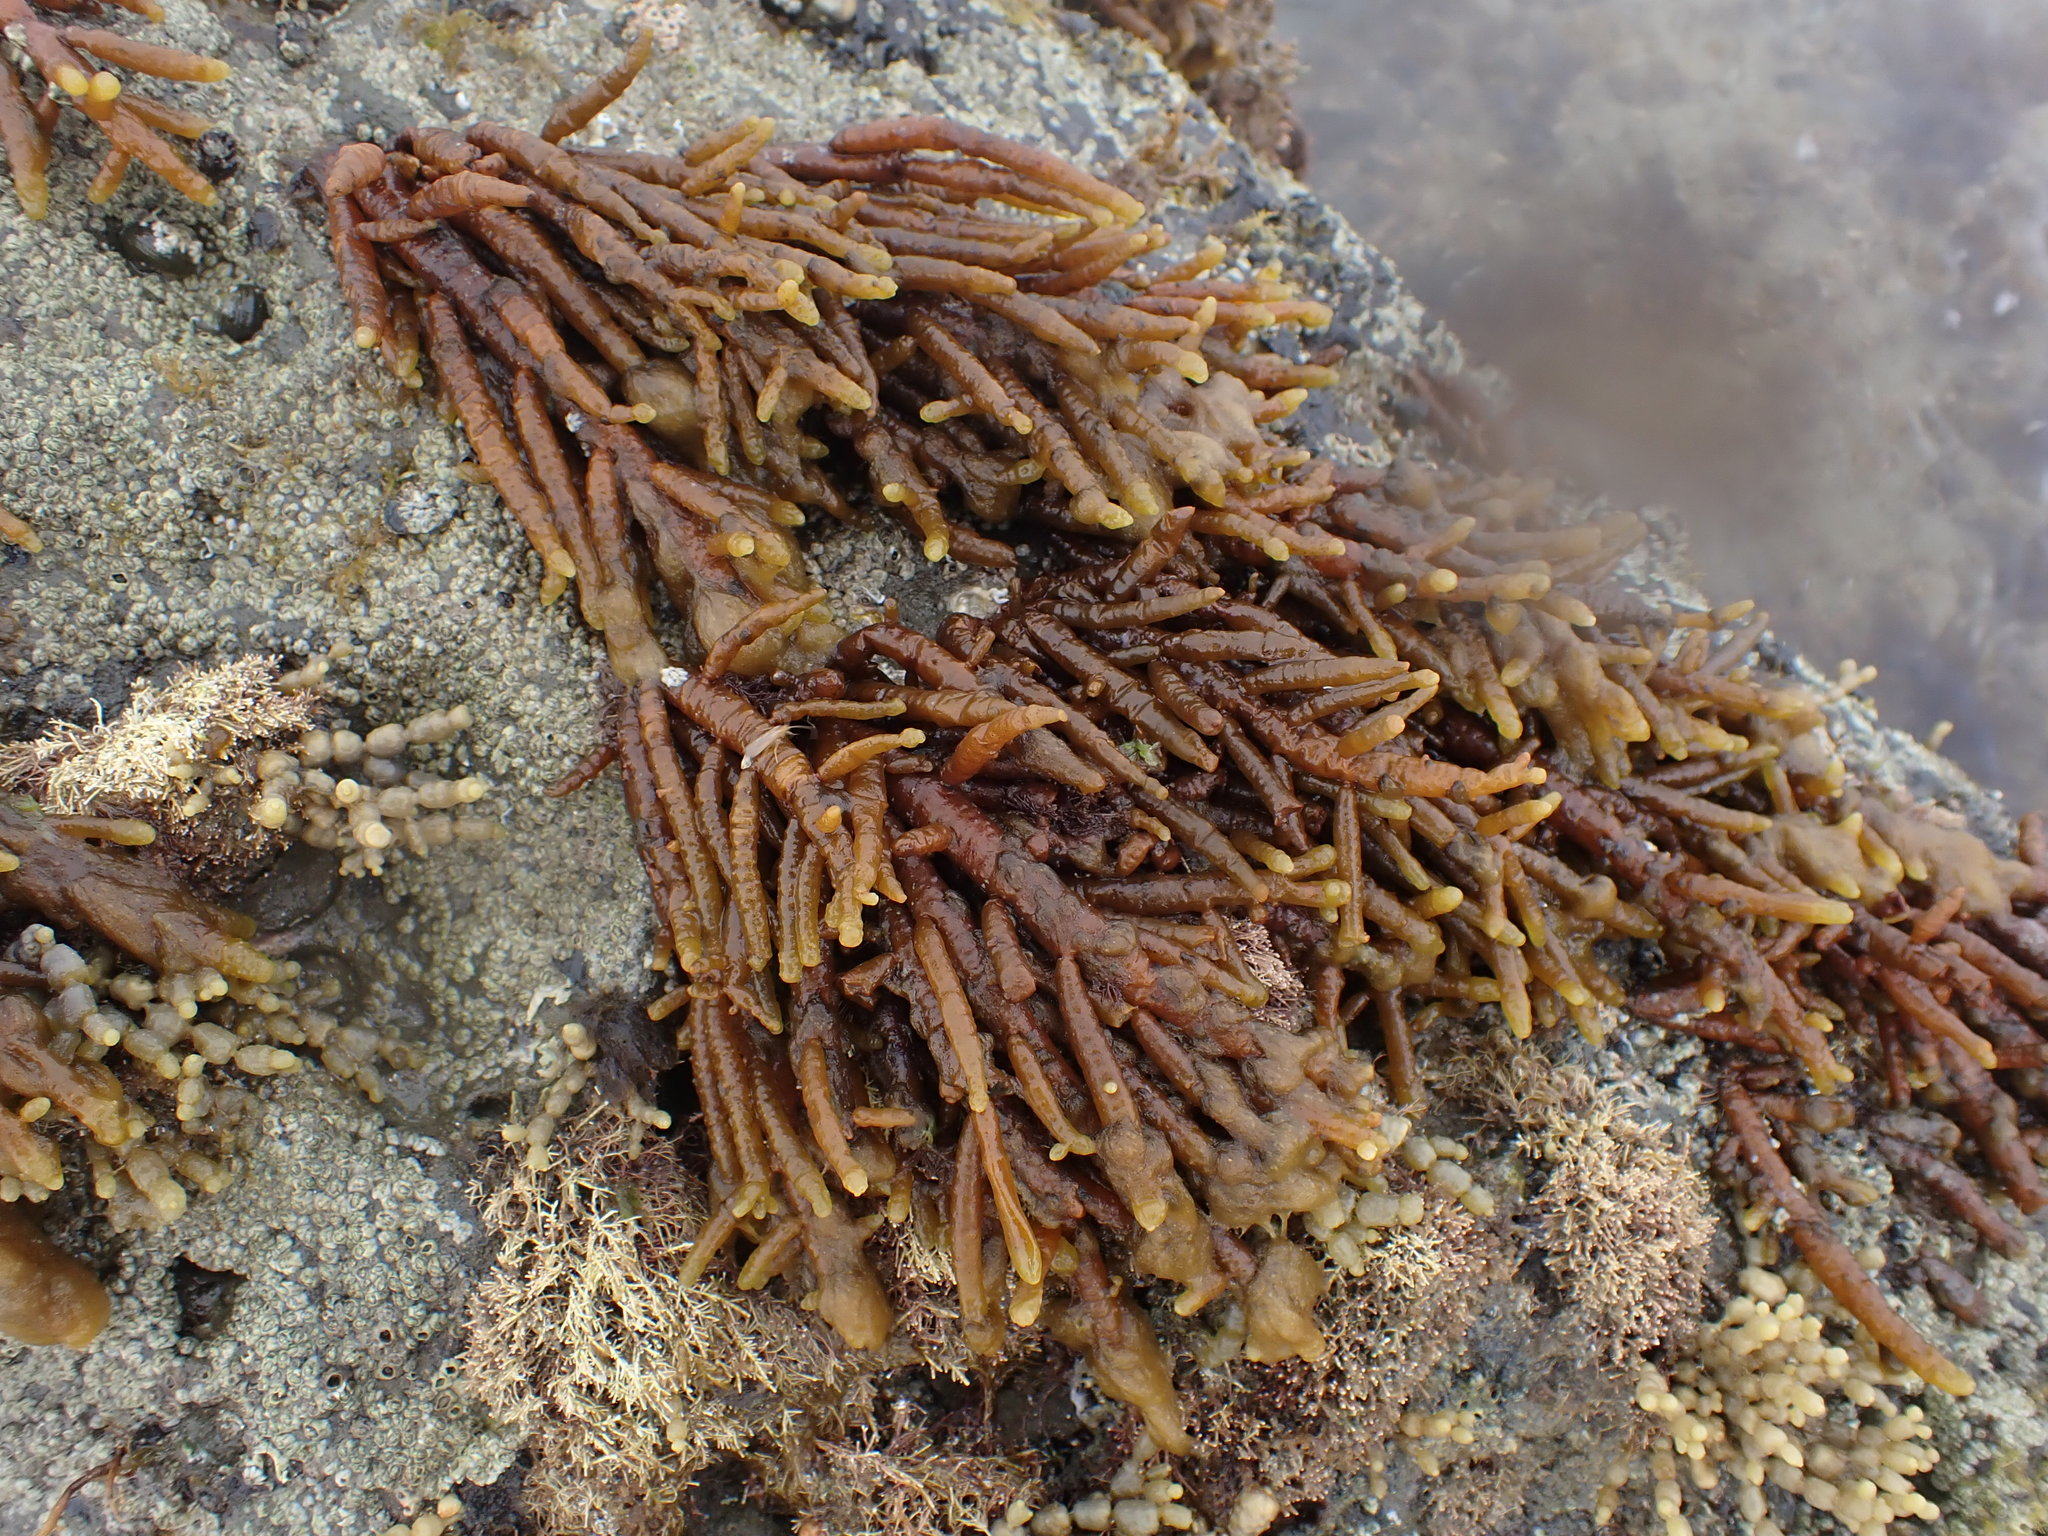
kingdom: Chromista
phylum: Ochrophyta
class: Phaeophyceae
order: Scytothamnales
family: Splachnidiaceae
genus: Splachnidium
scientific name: Splachnidium rugosum
